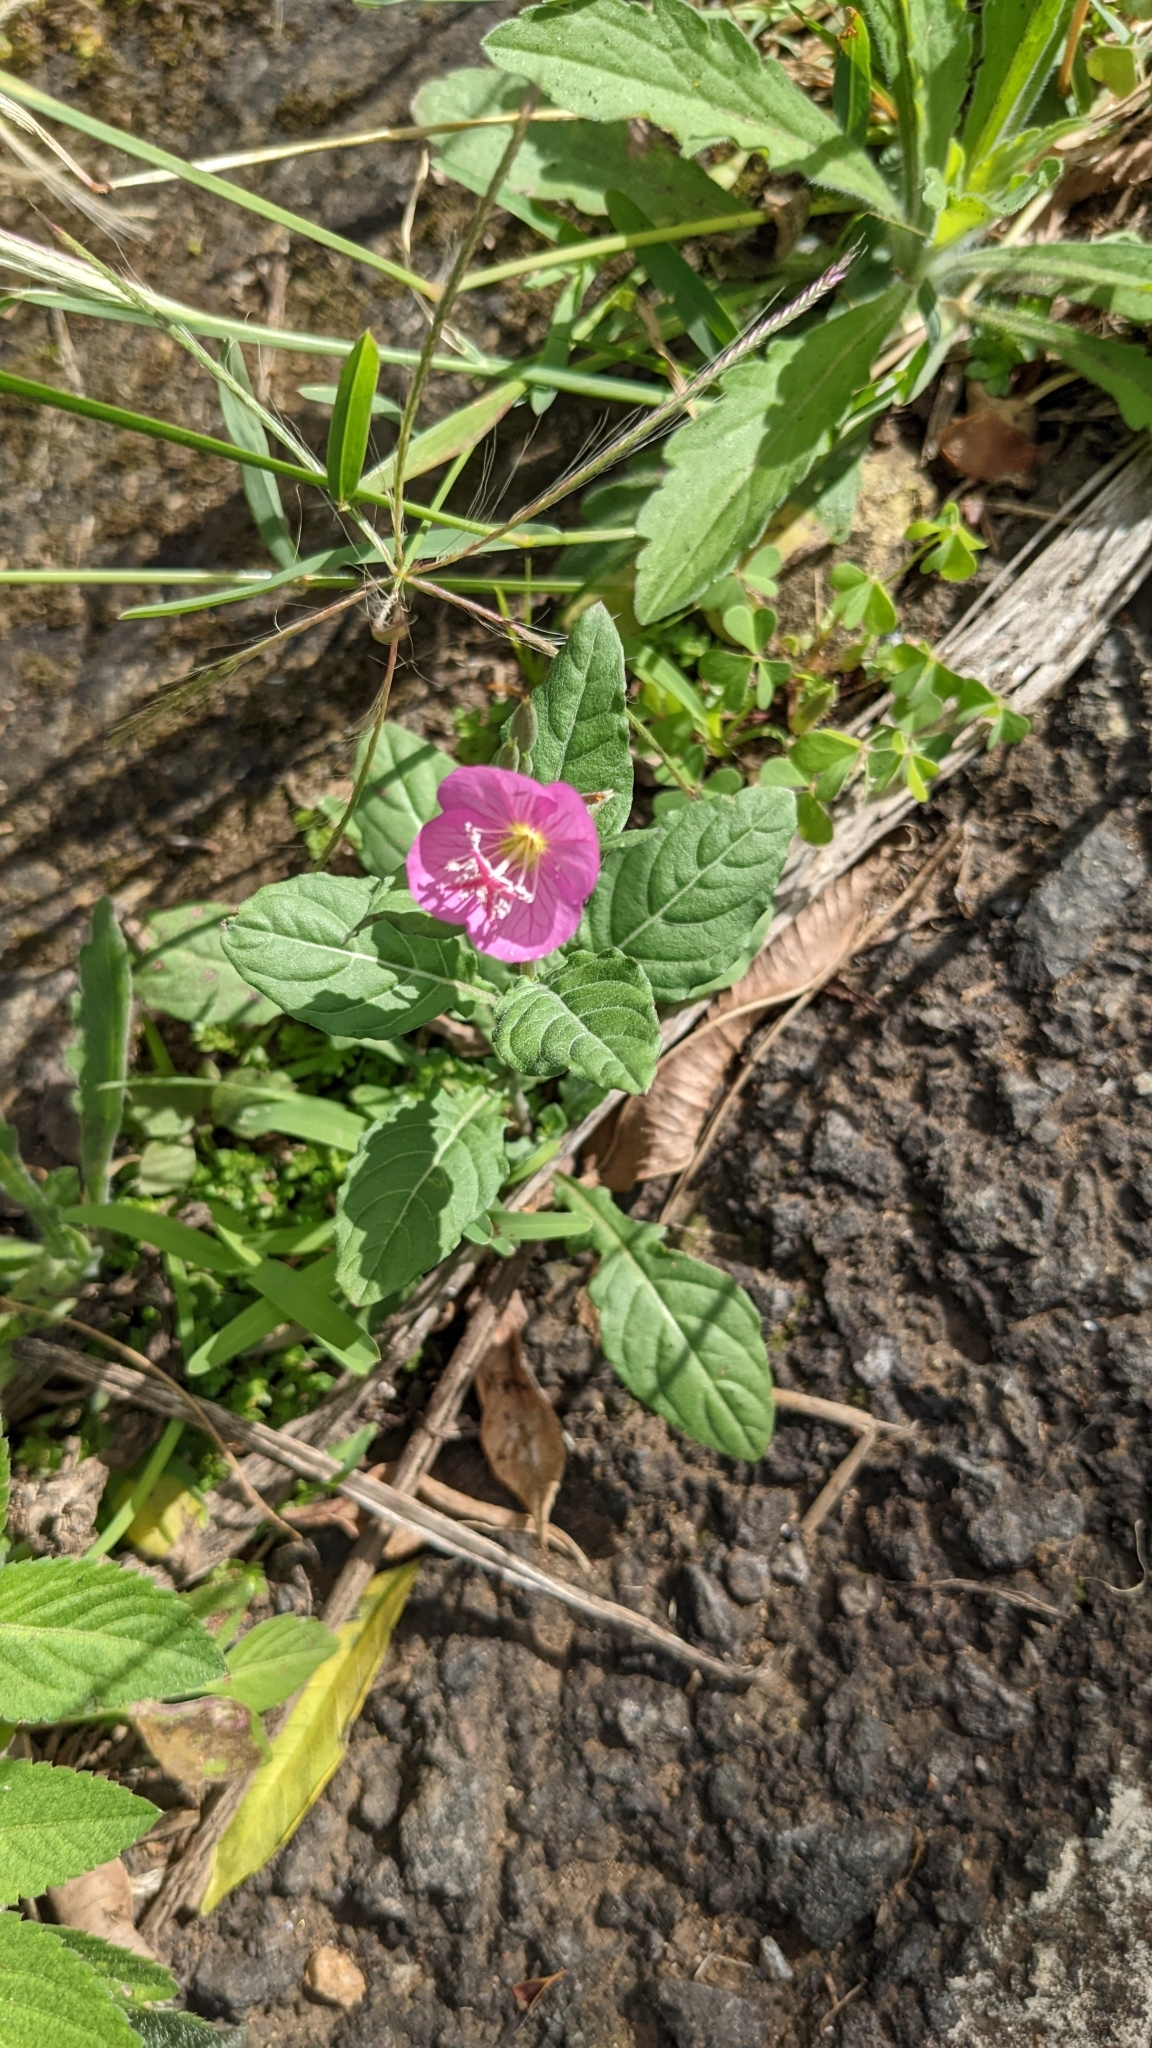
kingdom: Plantae
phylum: Tracheophyta
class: Magnoliopsida
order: Myrtales
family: Onagraceae
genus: Oenothera
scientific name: Oenothera rosea
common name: Rosy evening-primrose
